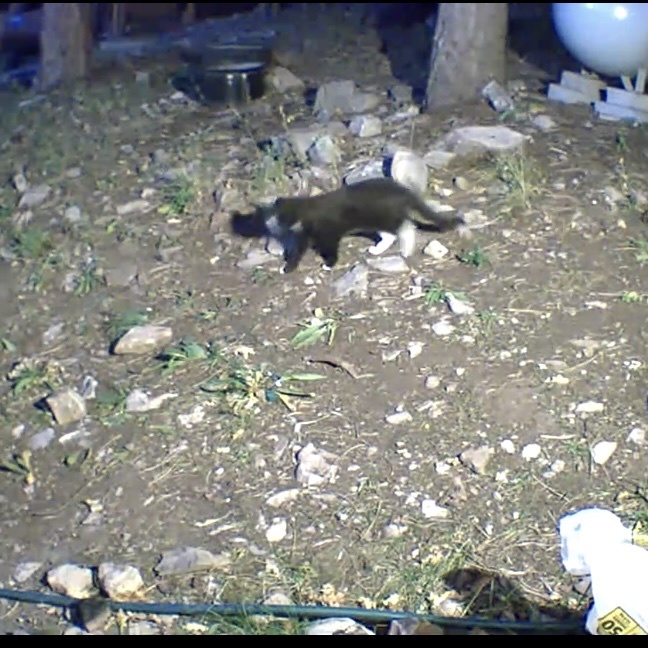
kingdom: Animalia
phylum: Chordata
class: Mammalia
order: Carnivora
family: Felidae
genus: Felis
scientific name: Felis catus
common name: Domestic cat
